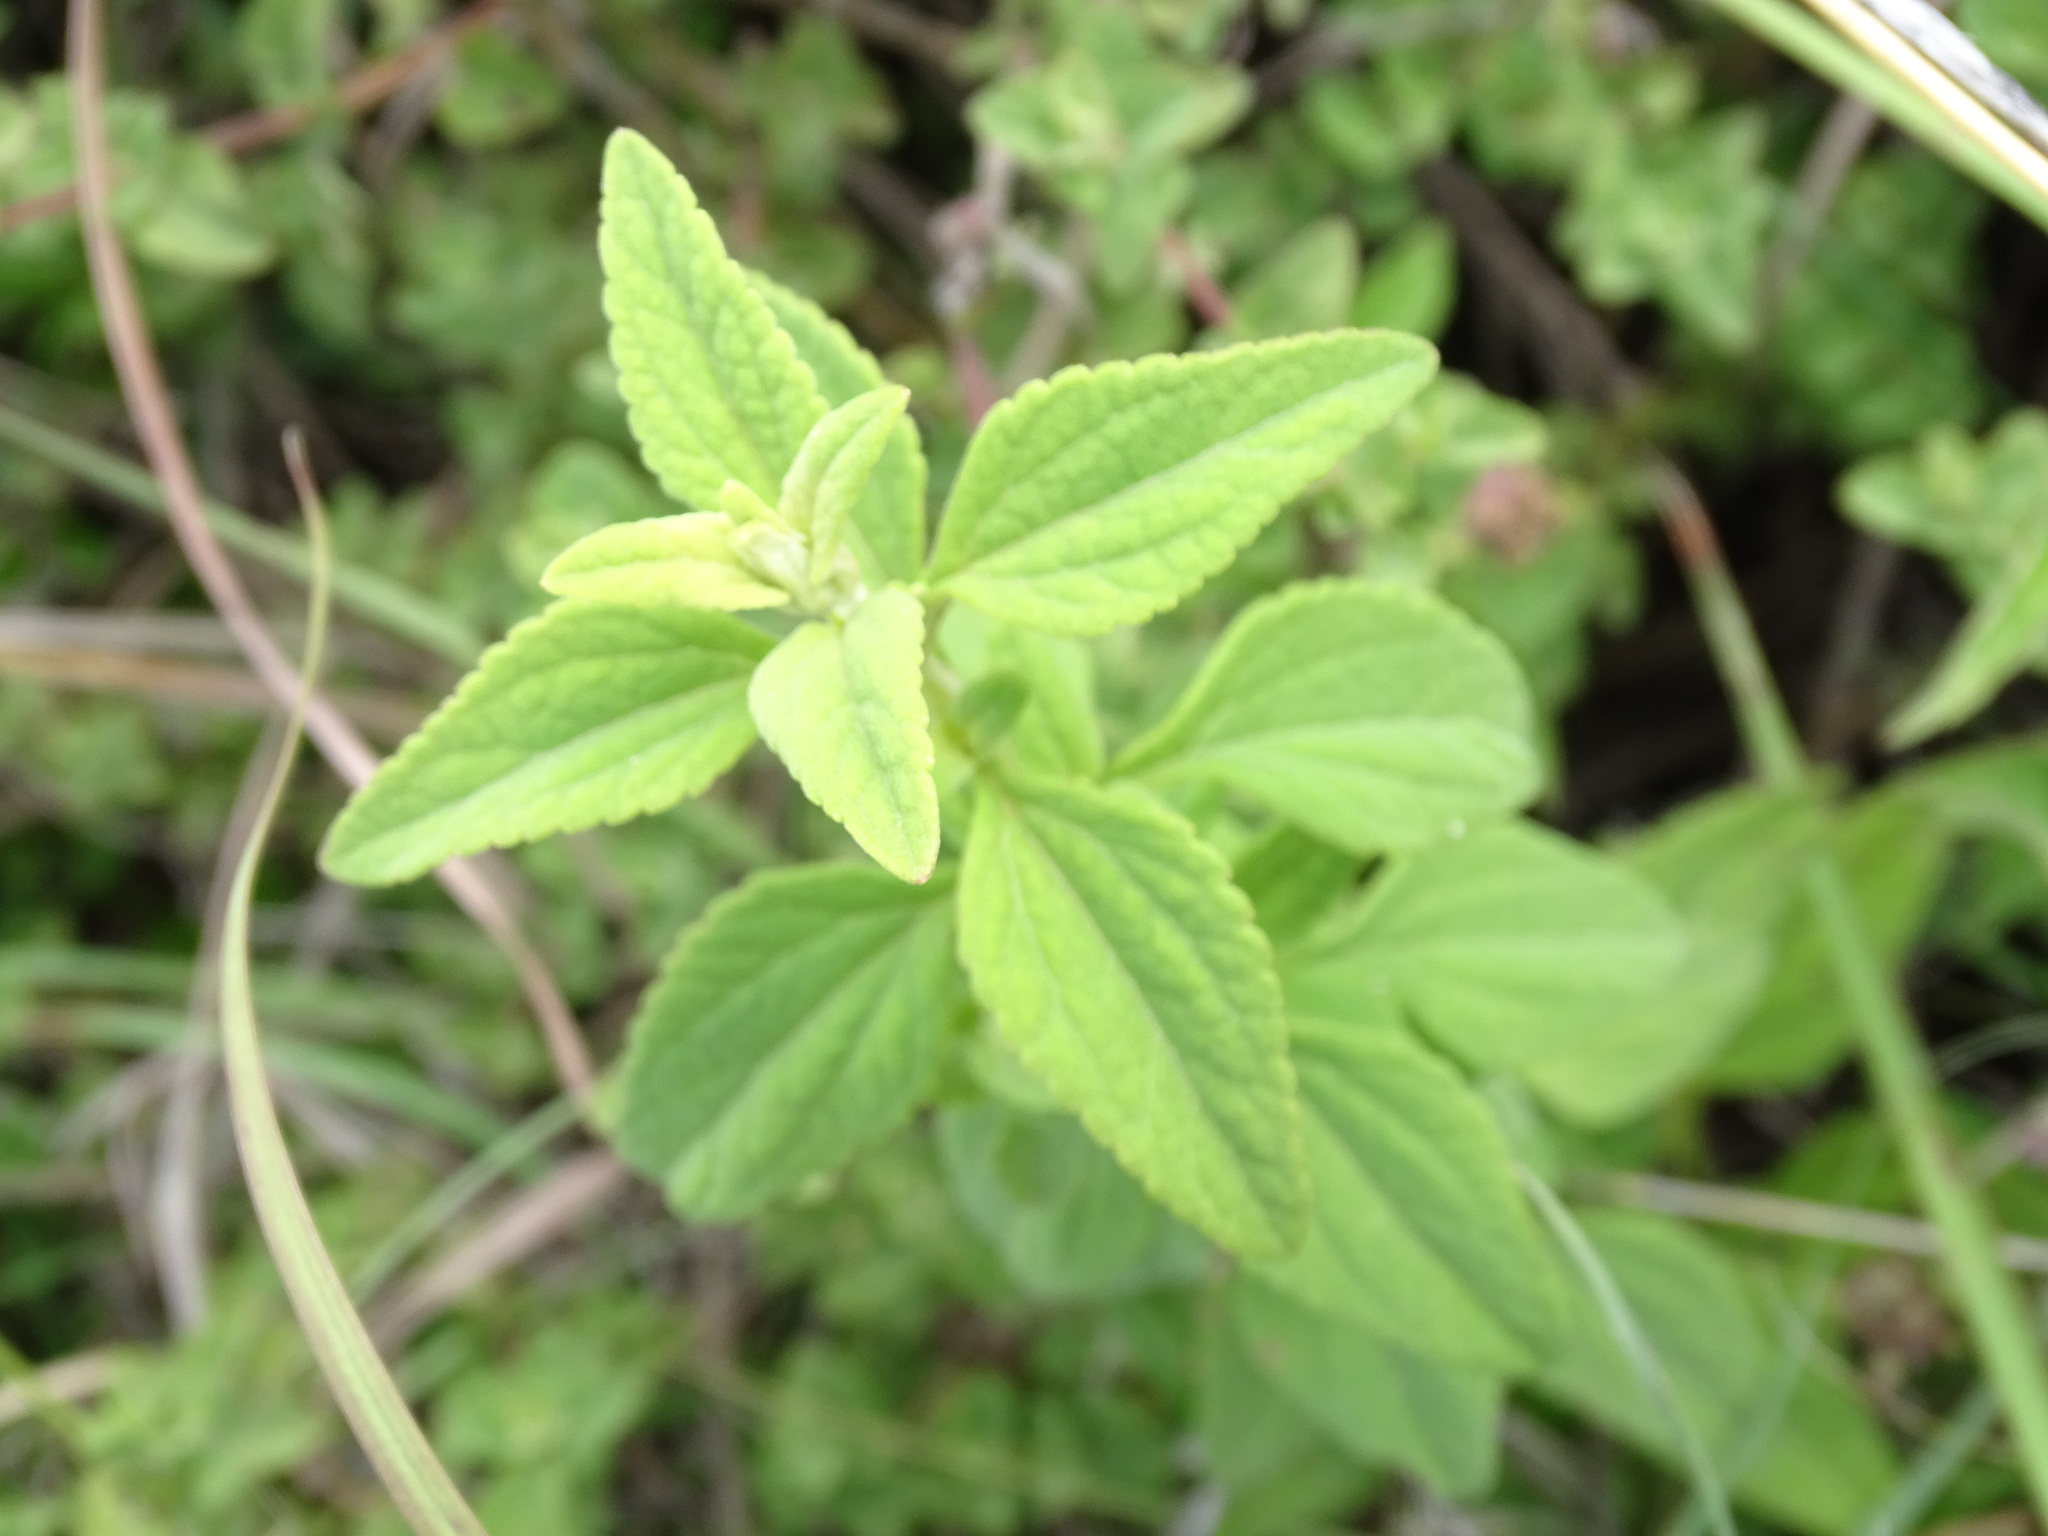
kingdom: Plantae
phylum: Tracheophyta
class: Magnoliopsida
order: Lamiales
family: Verbenaceae
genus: Lantana
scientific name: Lantana achyranthifolia
